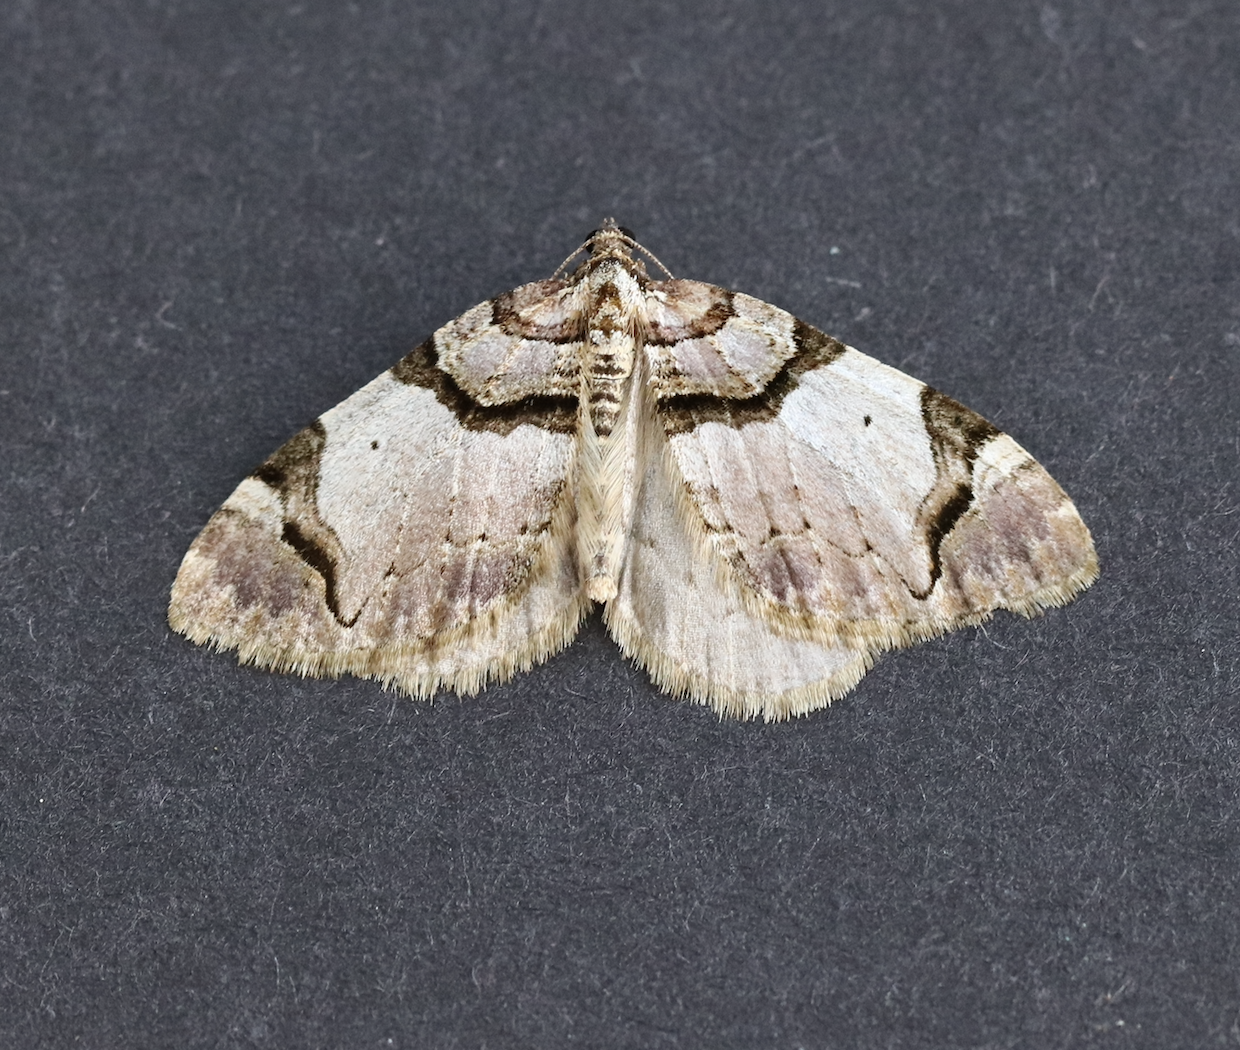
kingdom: Animalia
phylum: Arthropoda
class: Insecta
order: Lepidoptera
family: Geometridae
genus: Anticlea
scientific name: Anticlea derivata
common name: Streamer
